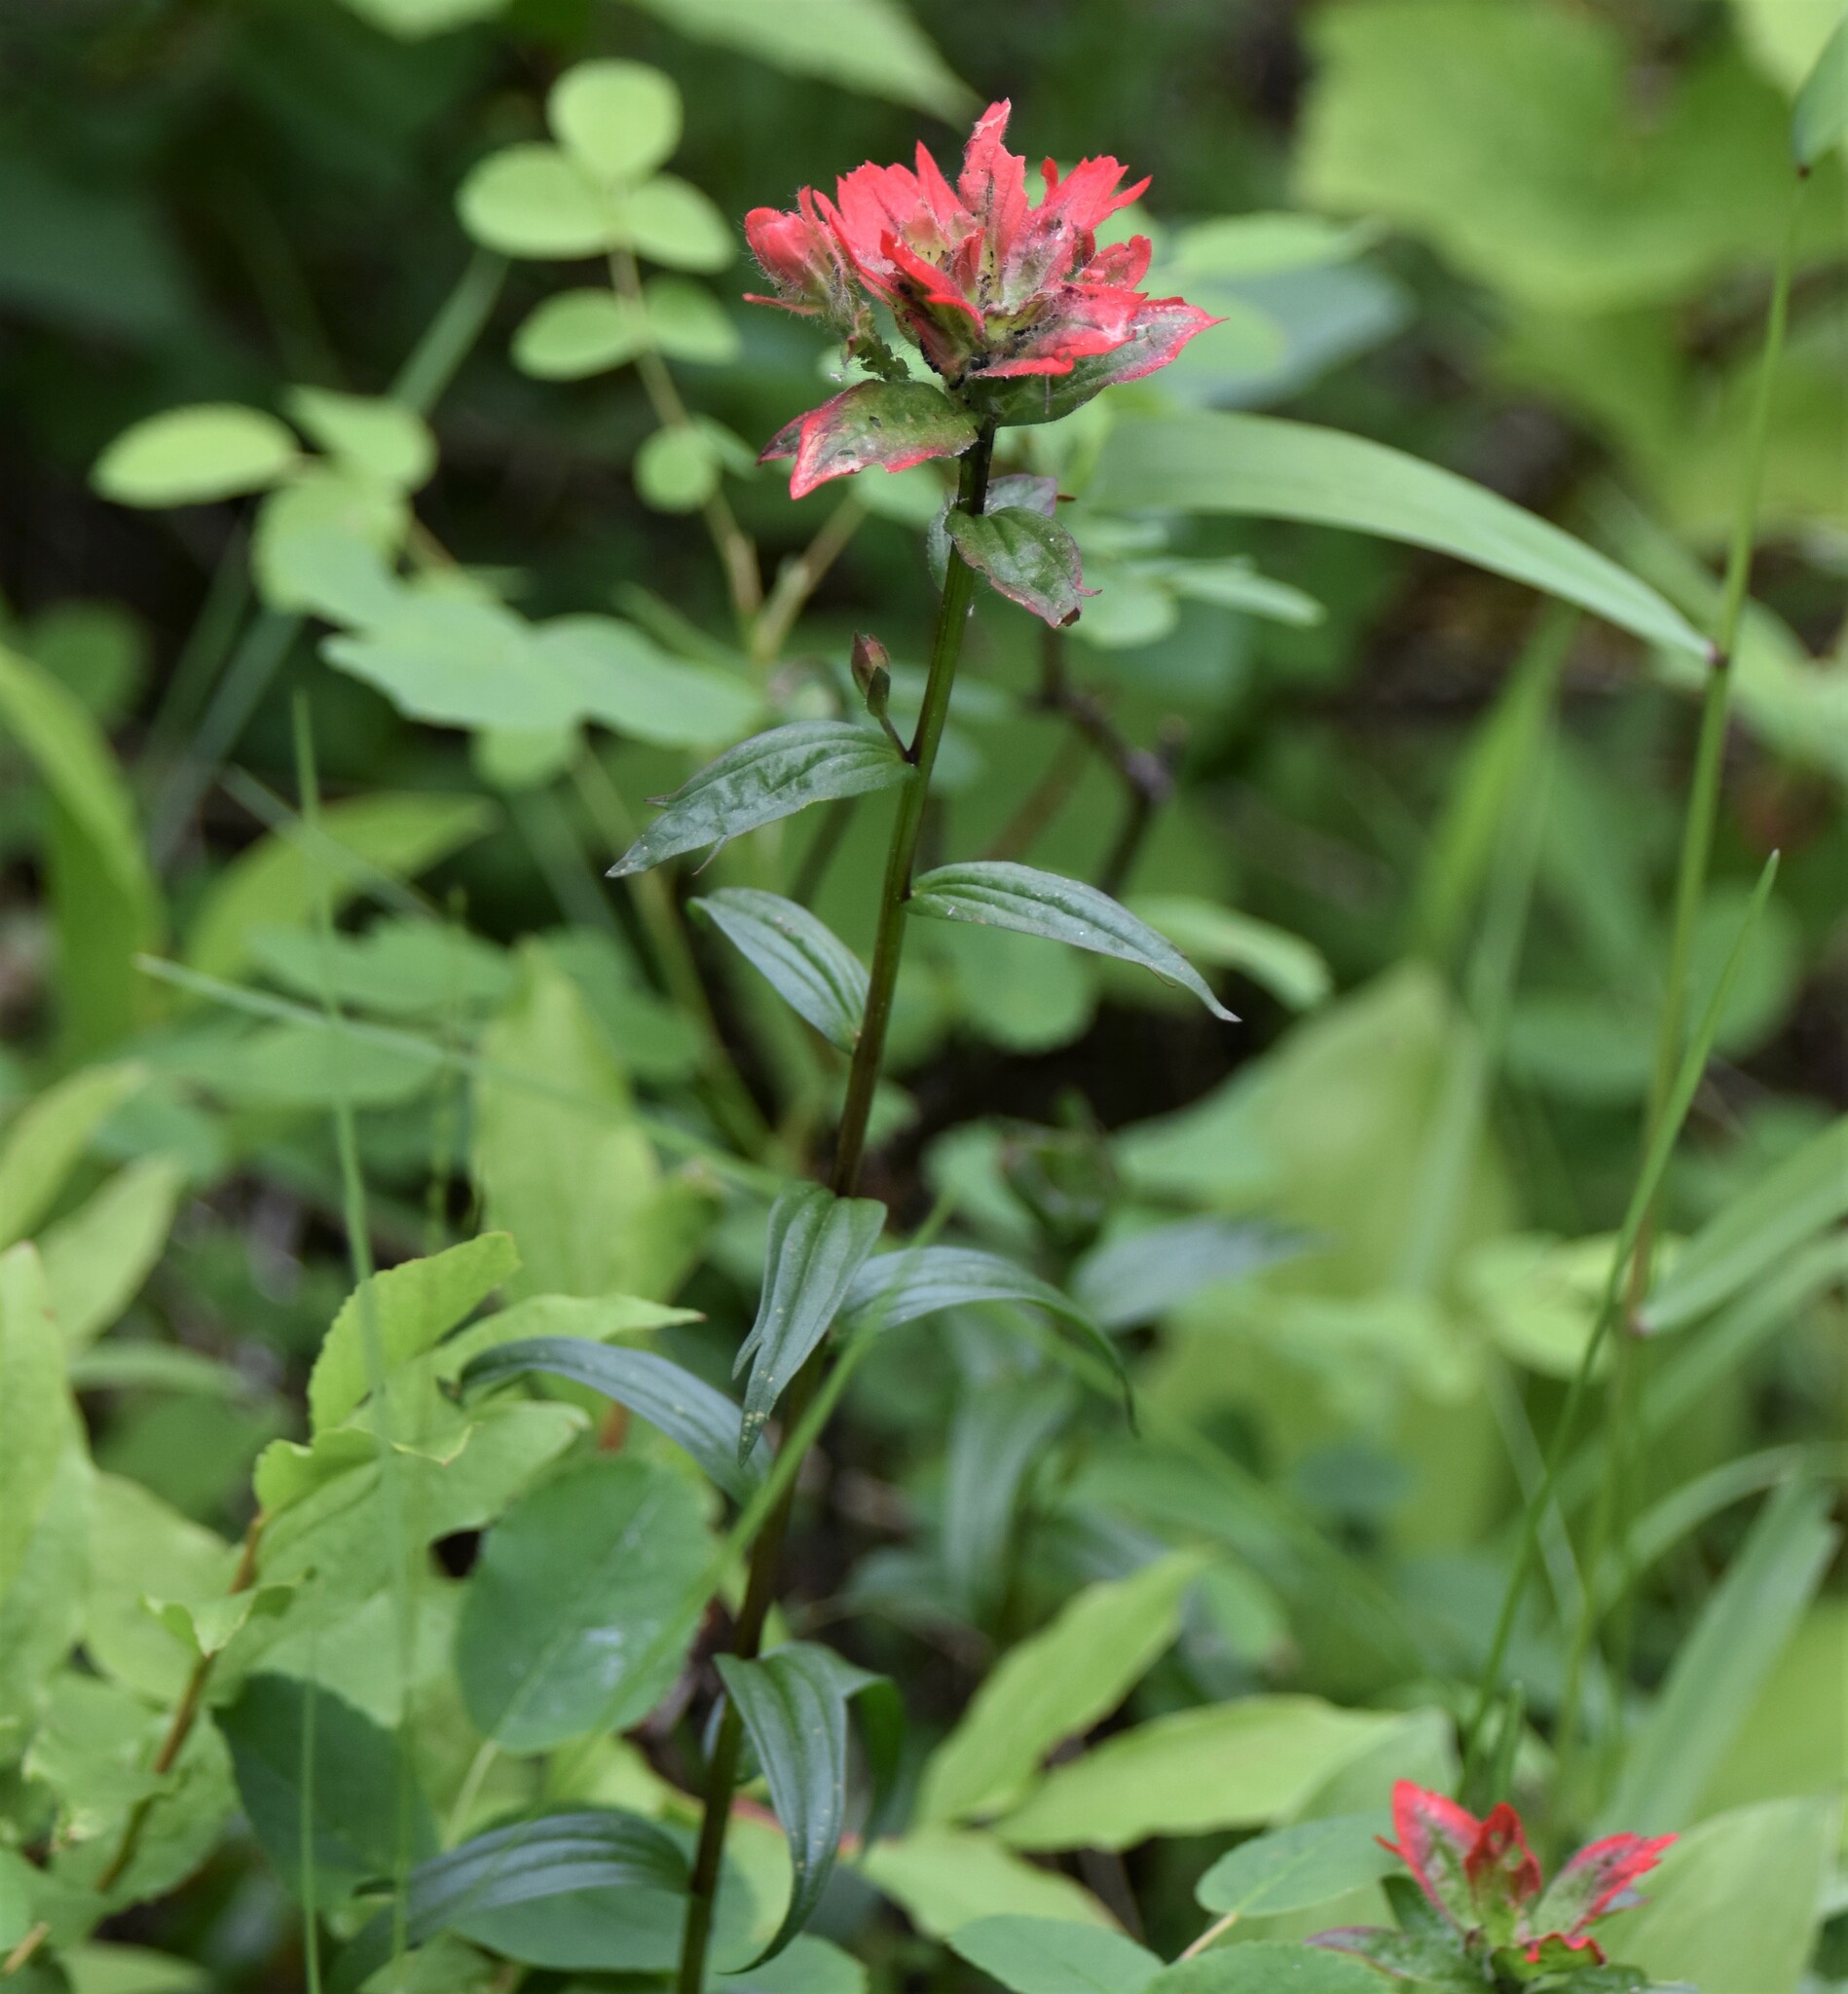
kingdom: Plantae
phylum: Tracheophyta
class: Magnoliopsida
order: Lamiales
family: Orobanchaceae
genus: Castilleja
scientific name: Castilleja miniata
